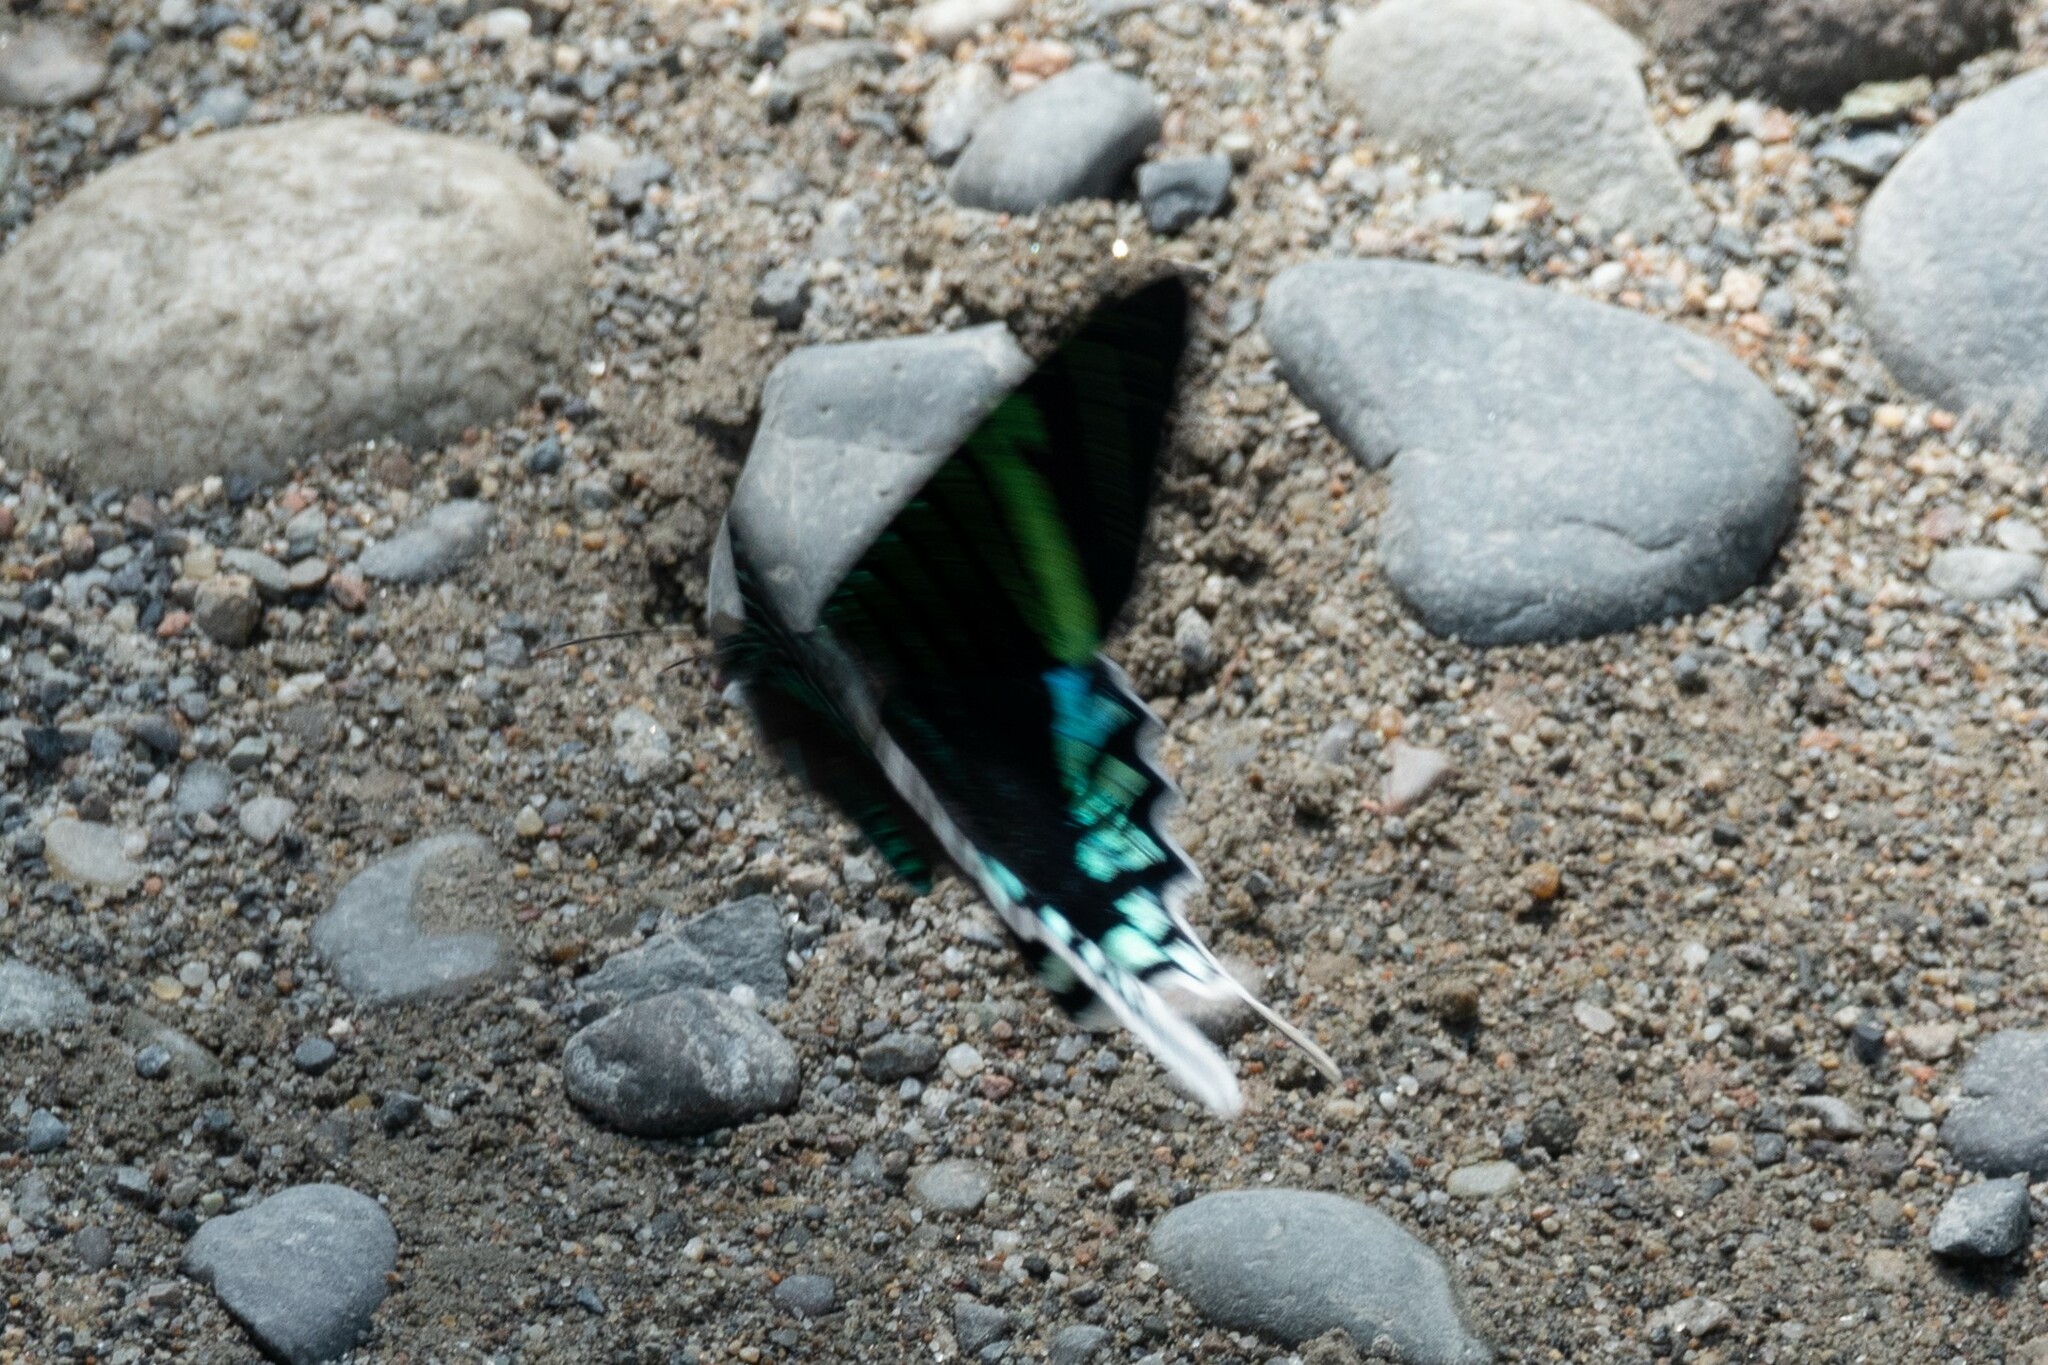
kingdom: Animalia
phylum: Arthropoda
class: Insecta
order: Lepidoptera
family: Uraniidae
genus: Urania
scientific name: Urania leilus
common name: Peacock moth
